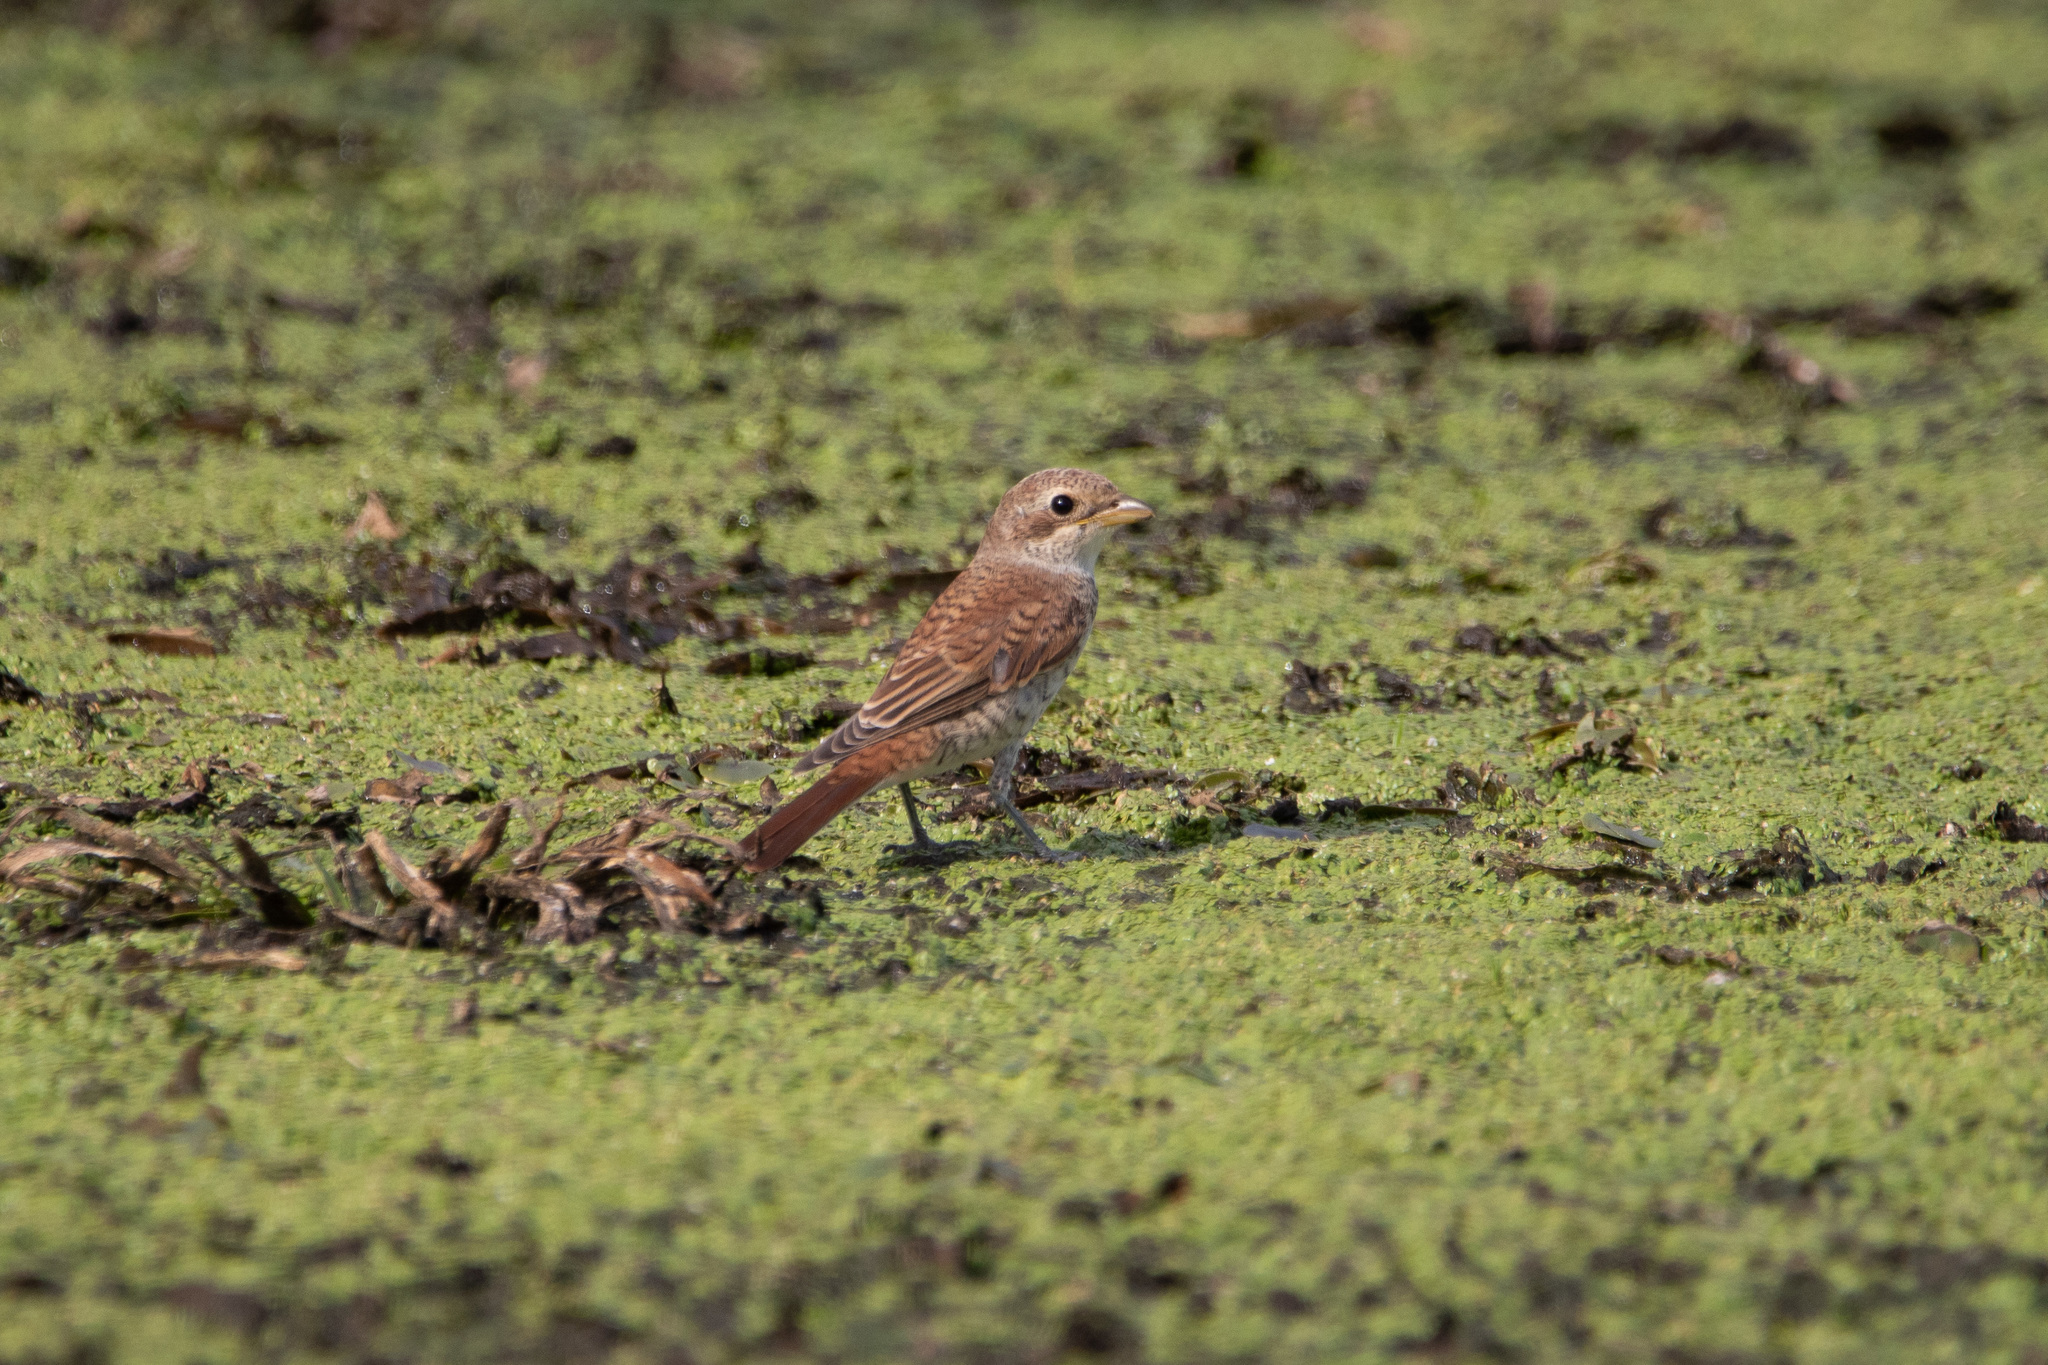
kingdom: Animalia
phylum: Chordata
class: Aves
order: Passeriformes
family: Laniidae
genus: Lanius
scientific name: Lanius collurio
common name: Red-backed shrike
